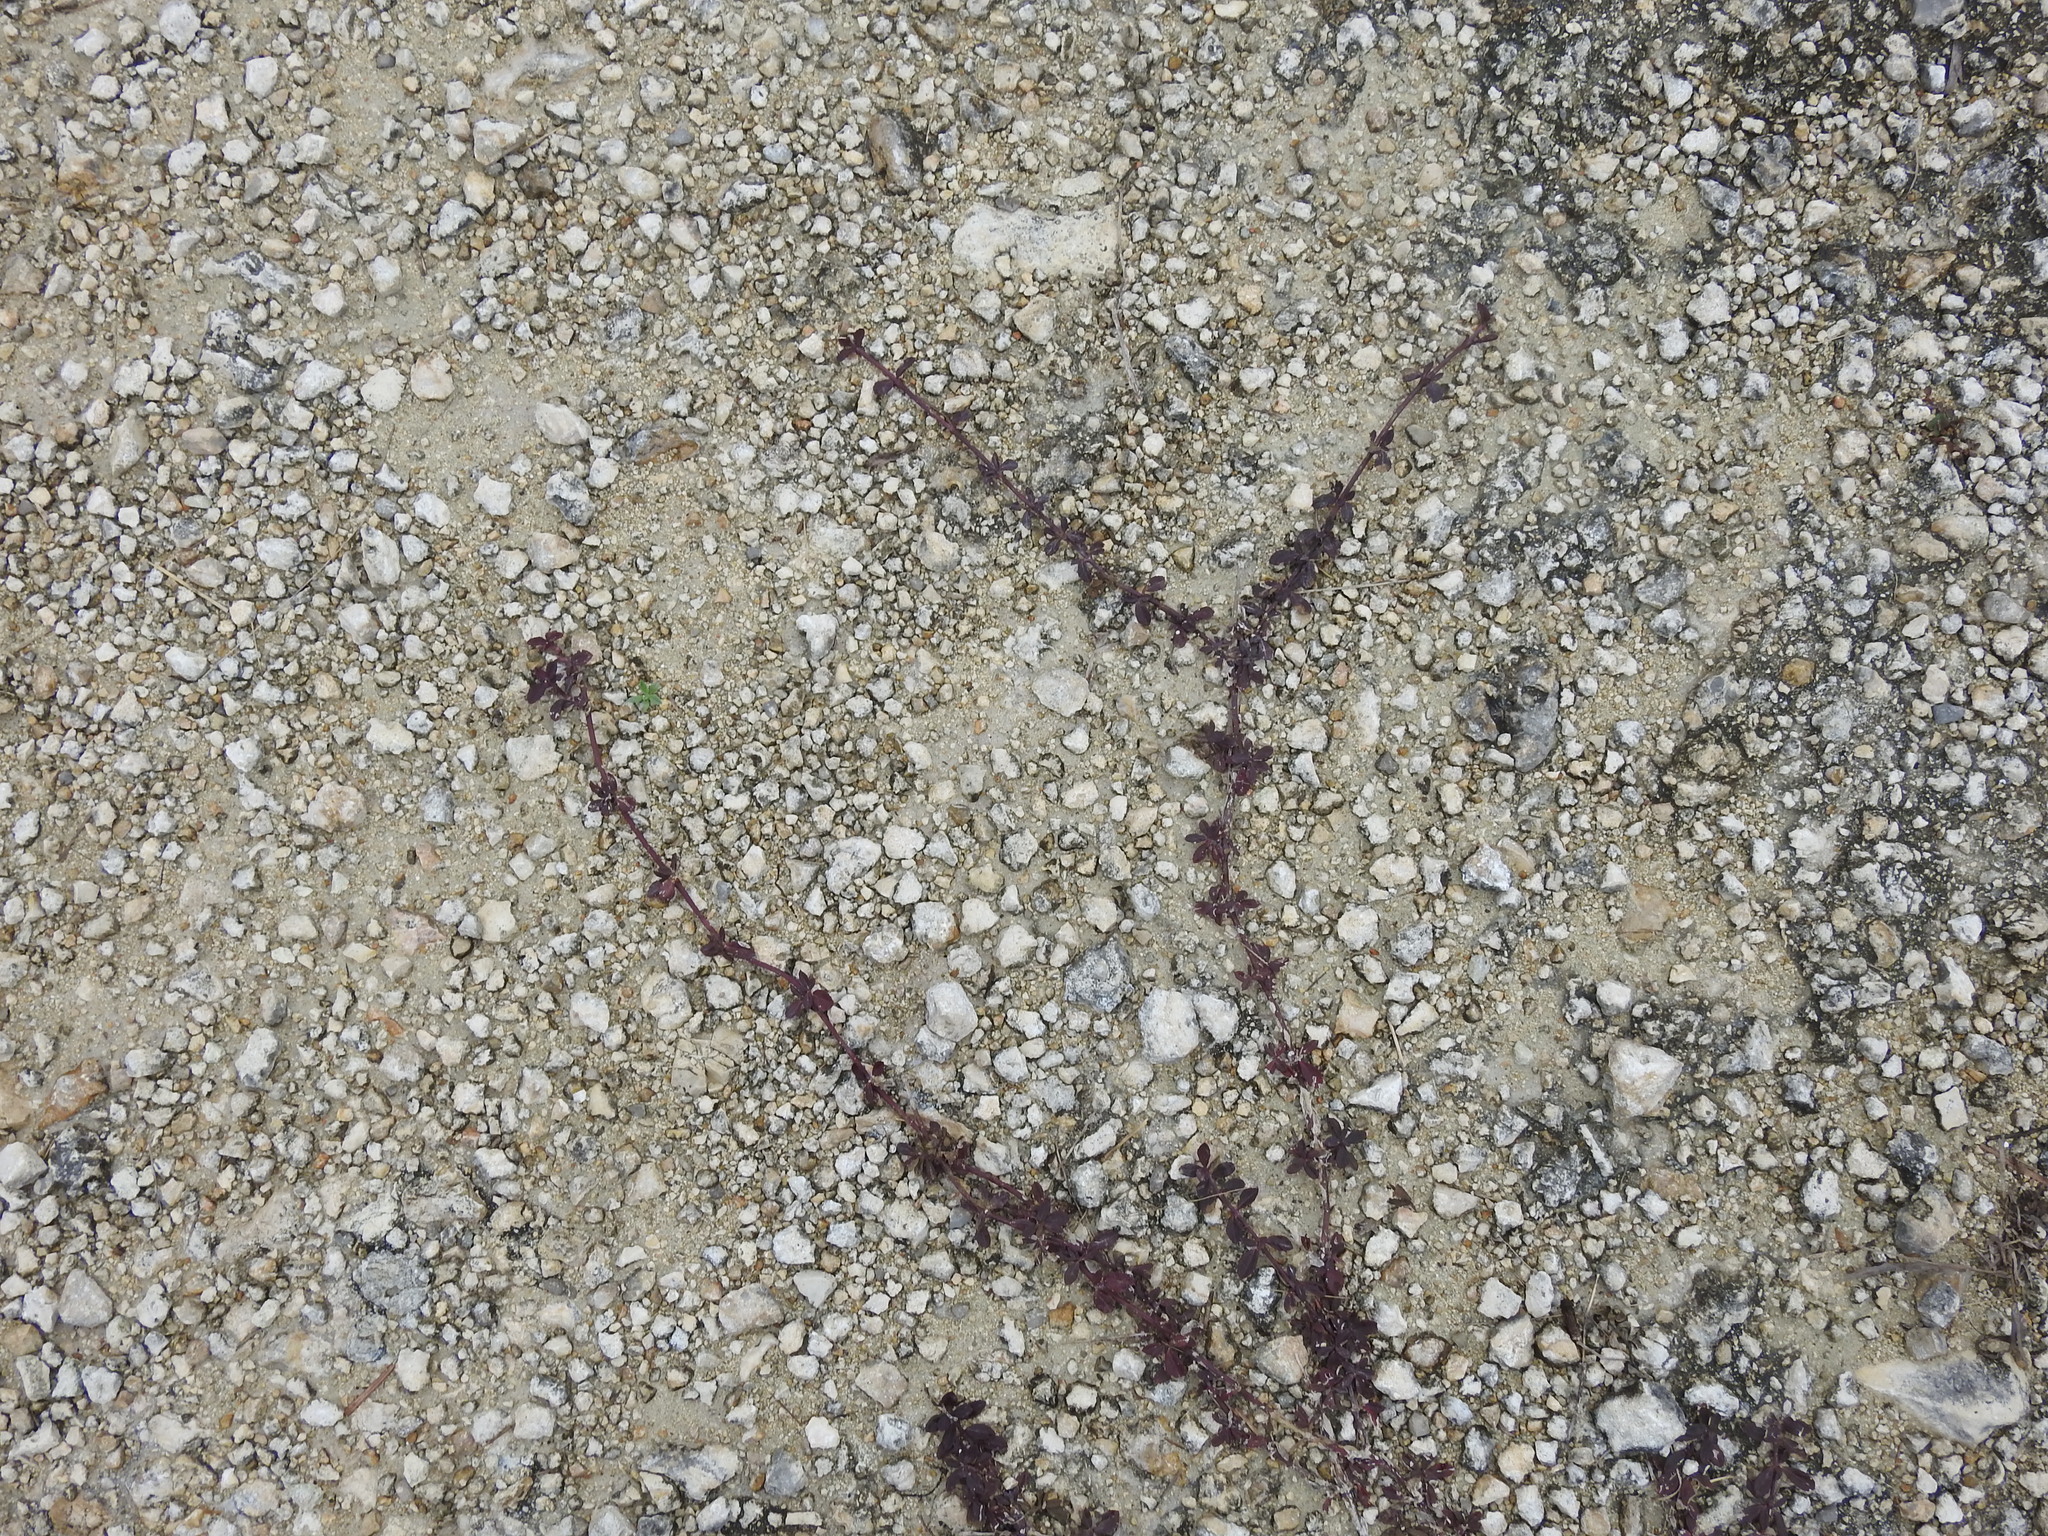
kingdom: Plantae
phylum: Tracheophyta
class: Magnoliopsida
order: Lamiales
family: Verbenaceae
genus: Phyla
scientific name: Phyla nodiflora
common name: Frogfruit
